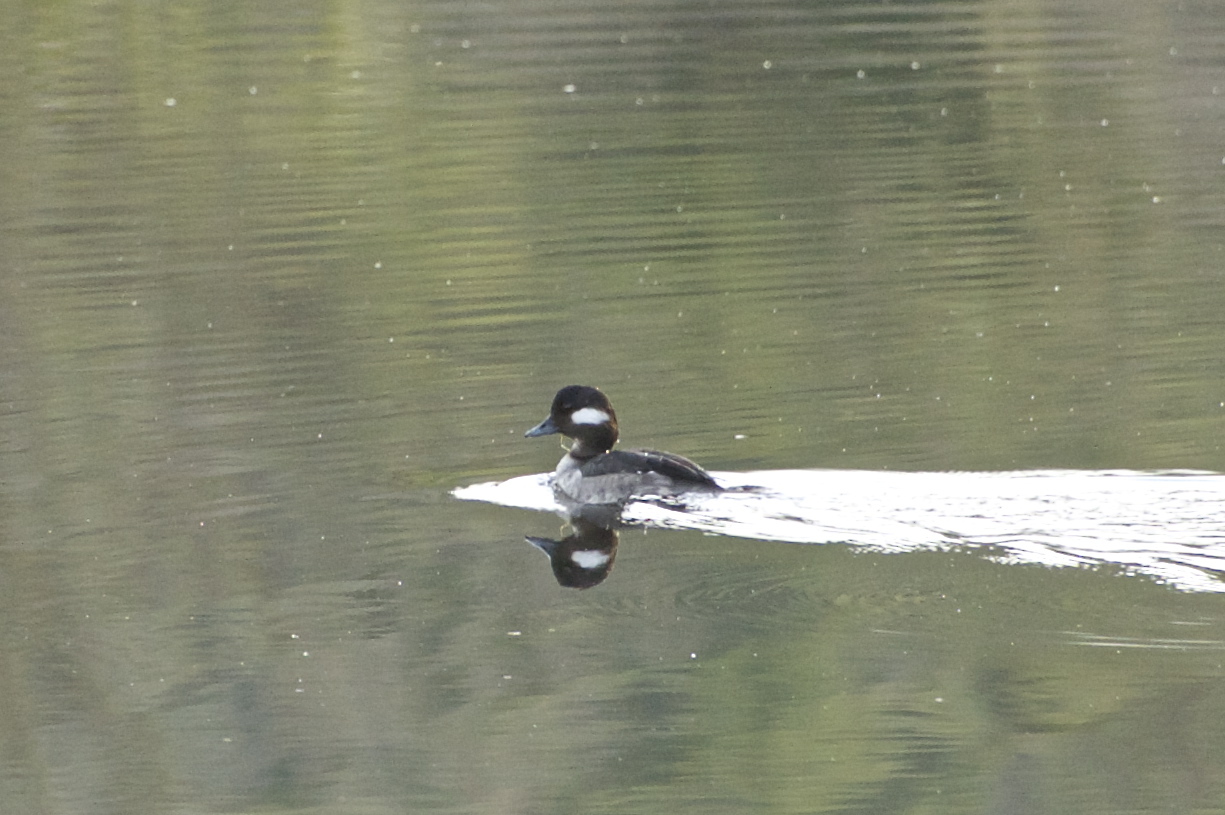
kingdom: Animalia
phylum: Chordata
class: Aves
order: Anseriformes
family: Anatidae
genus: Bucephala
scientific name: Bucephala albeola
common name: Bufflehead
